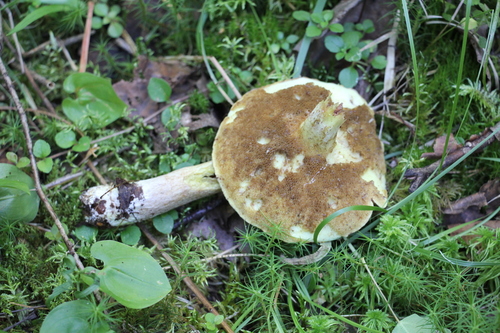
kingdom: Fungi
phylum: Basidiomycota
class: Agaricomycetes
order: Boletales
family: Suillaceae
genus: Suillus
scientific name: Suillus
